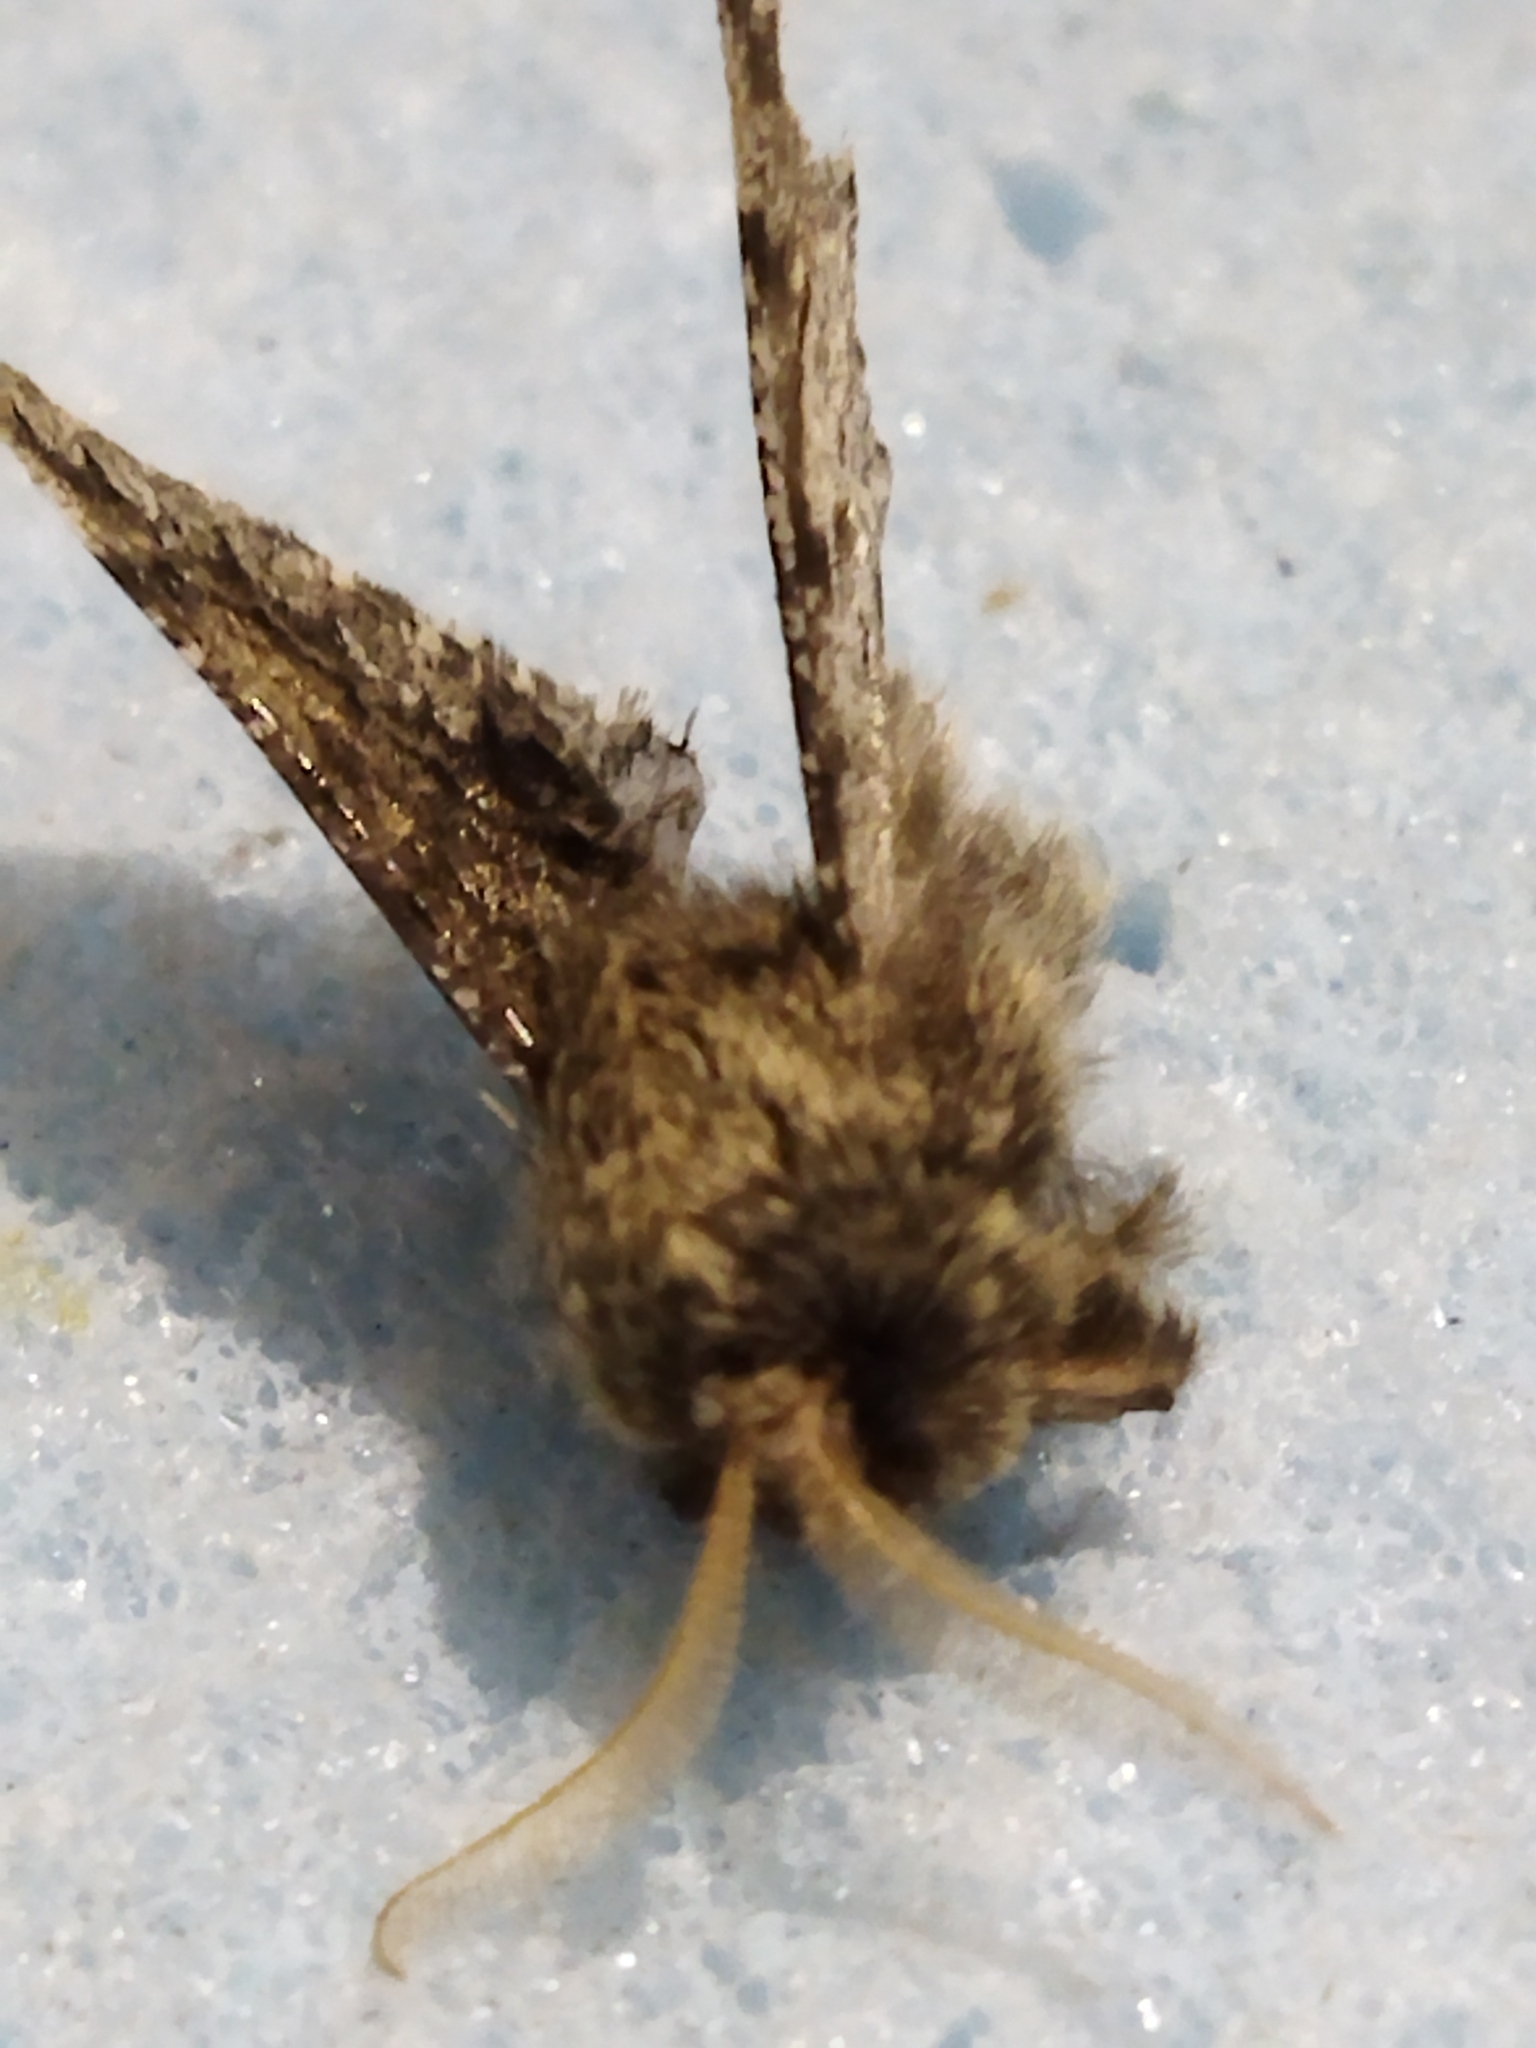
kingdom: Animalia
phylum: Arthropoda
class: Insecta
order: Lepidoptera
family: Geometridae
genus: Apocheima
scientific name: Apocheima hispidaria
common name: Small brindled beauty
